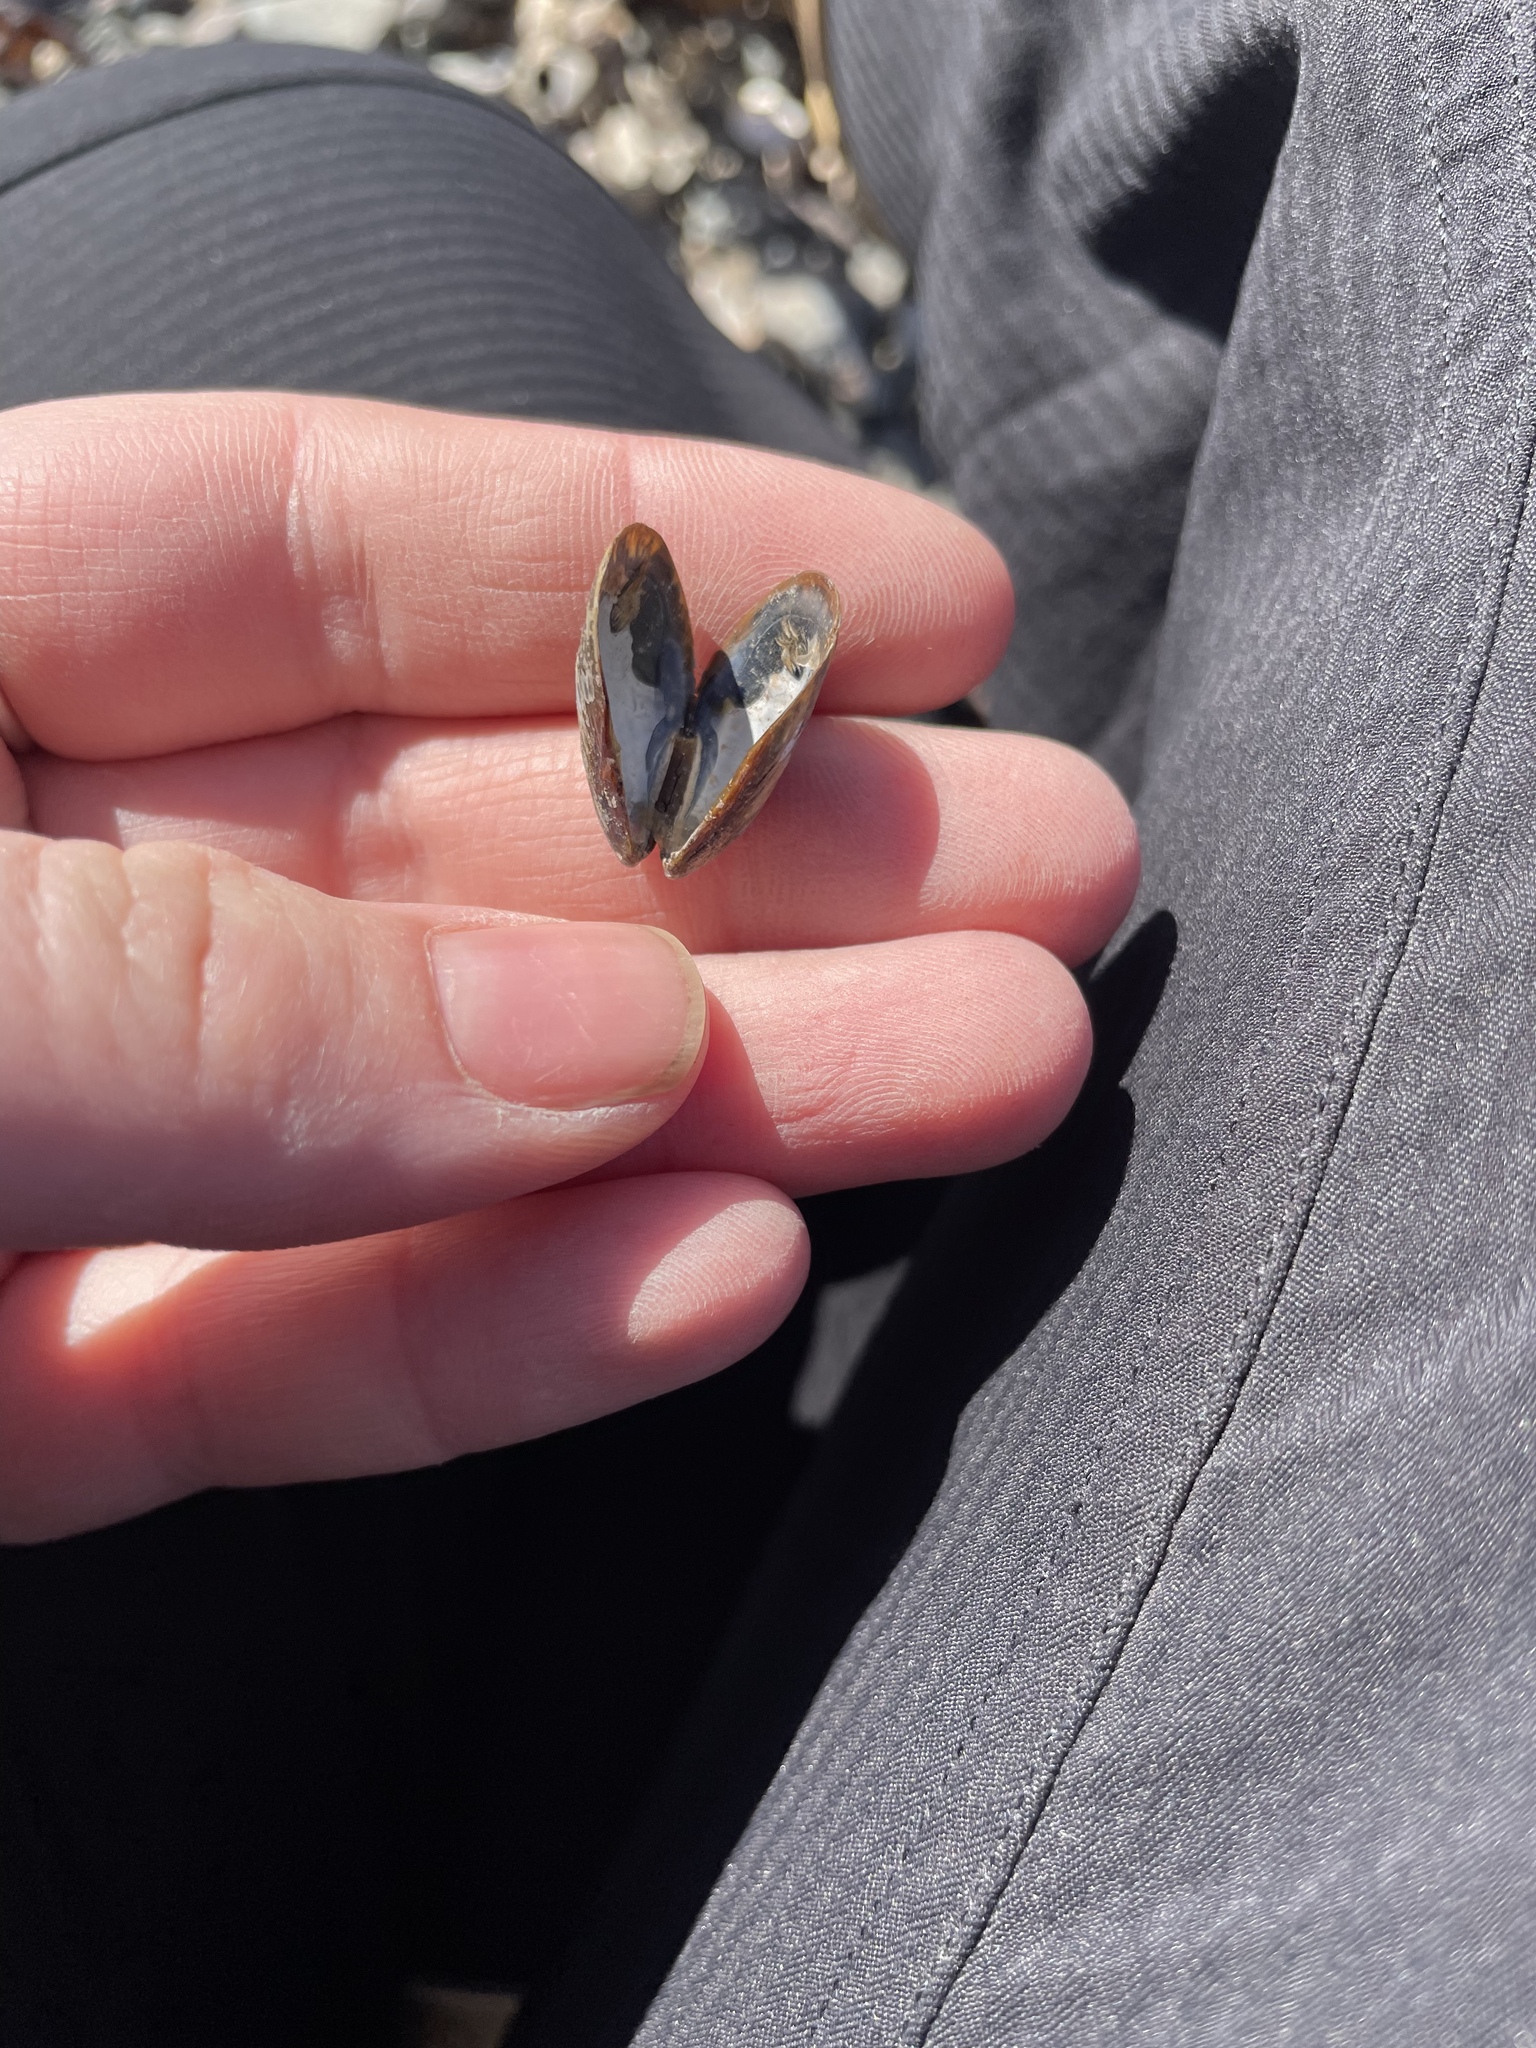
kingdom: Animalia
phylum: Mollusca
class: Bivalvia
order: Mytilida
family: Mytilidae
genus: Mytilus
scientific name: Mytilus
